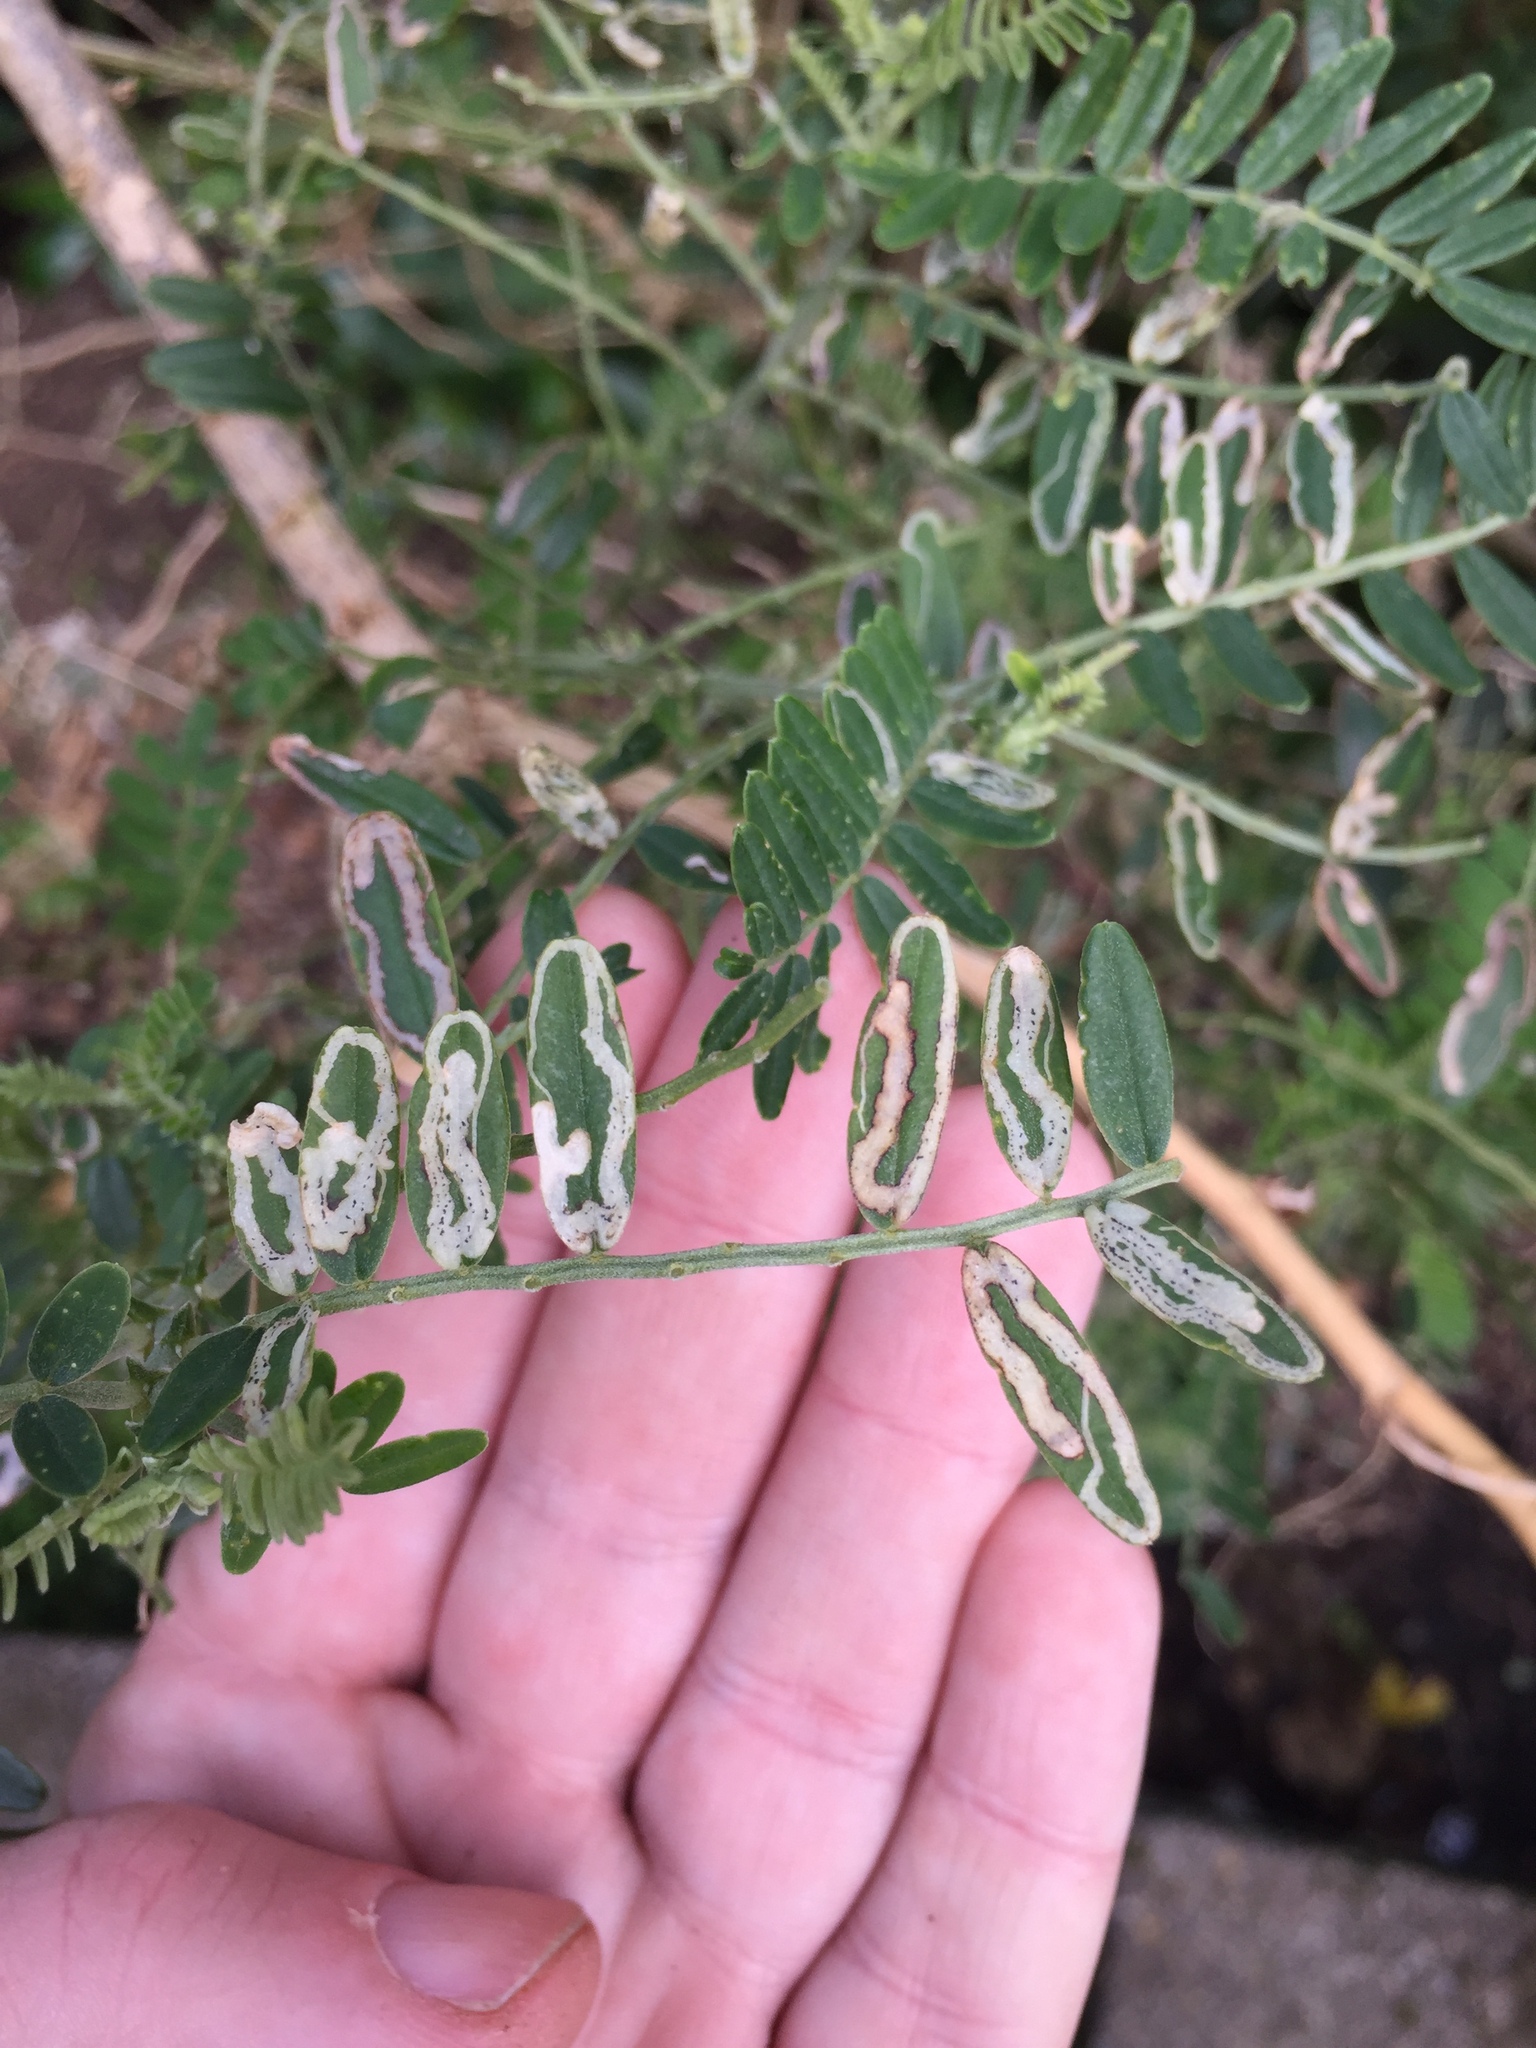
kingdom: Animalia
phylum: Arthropoda
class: Insecta
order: Diptera
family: Agromyzidae
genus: Liriomyza
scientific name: Liriomyza clianthi
